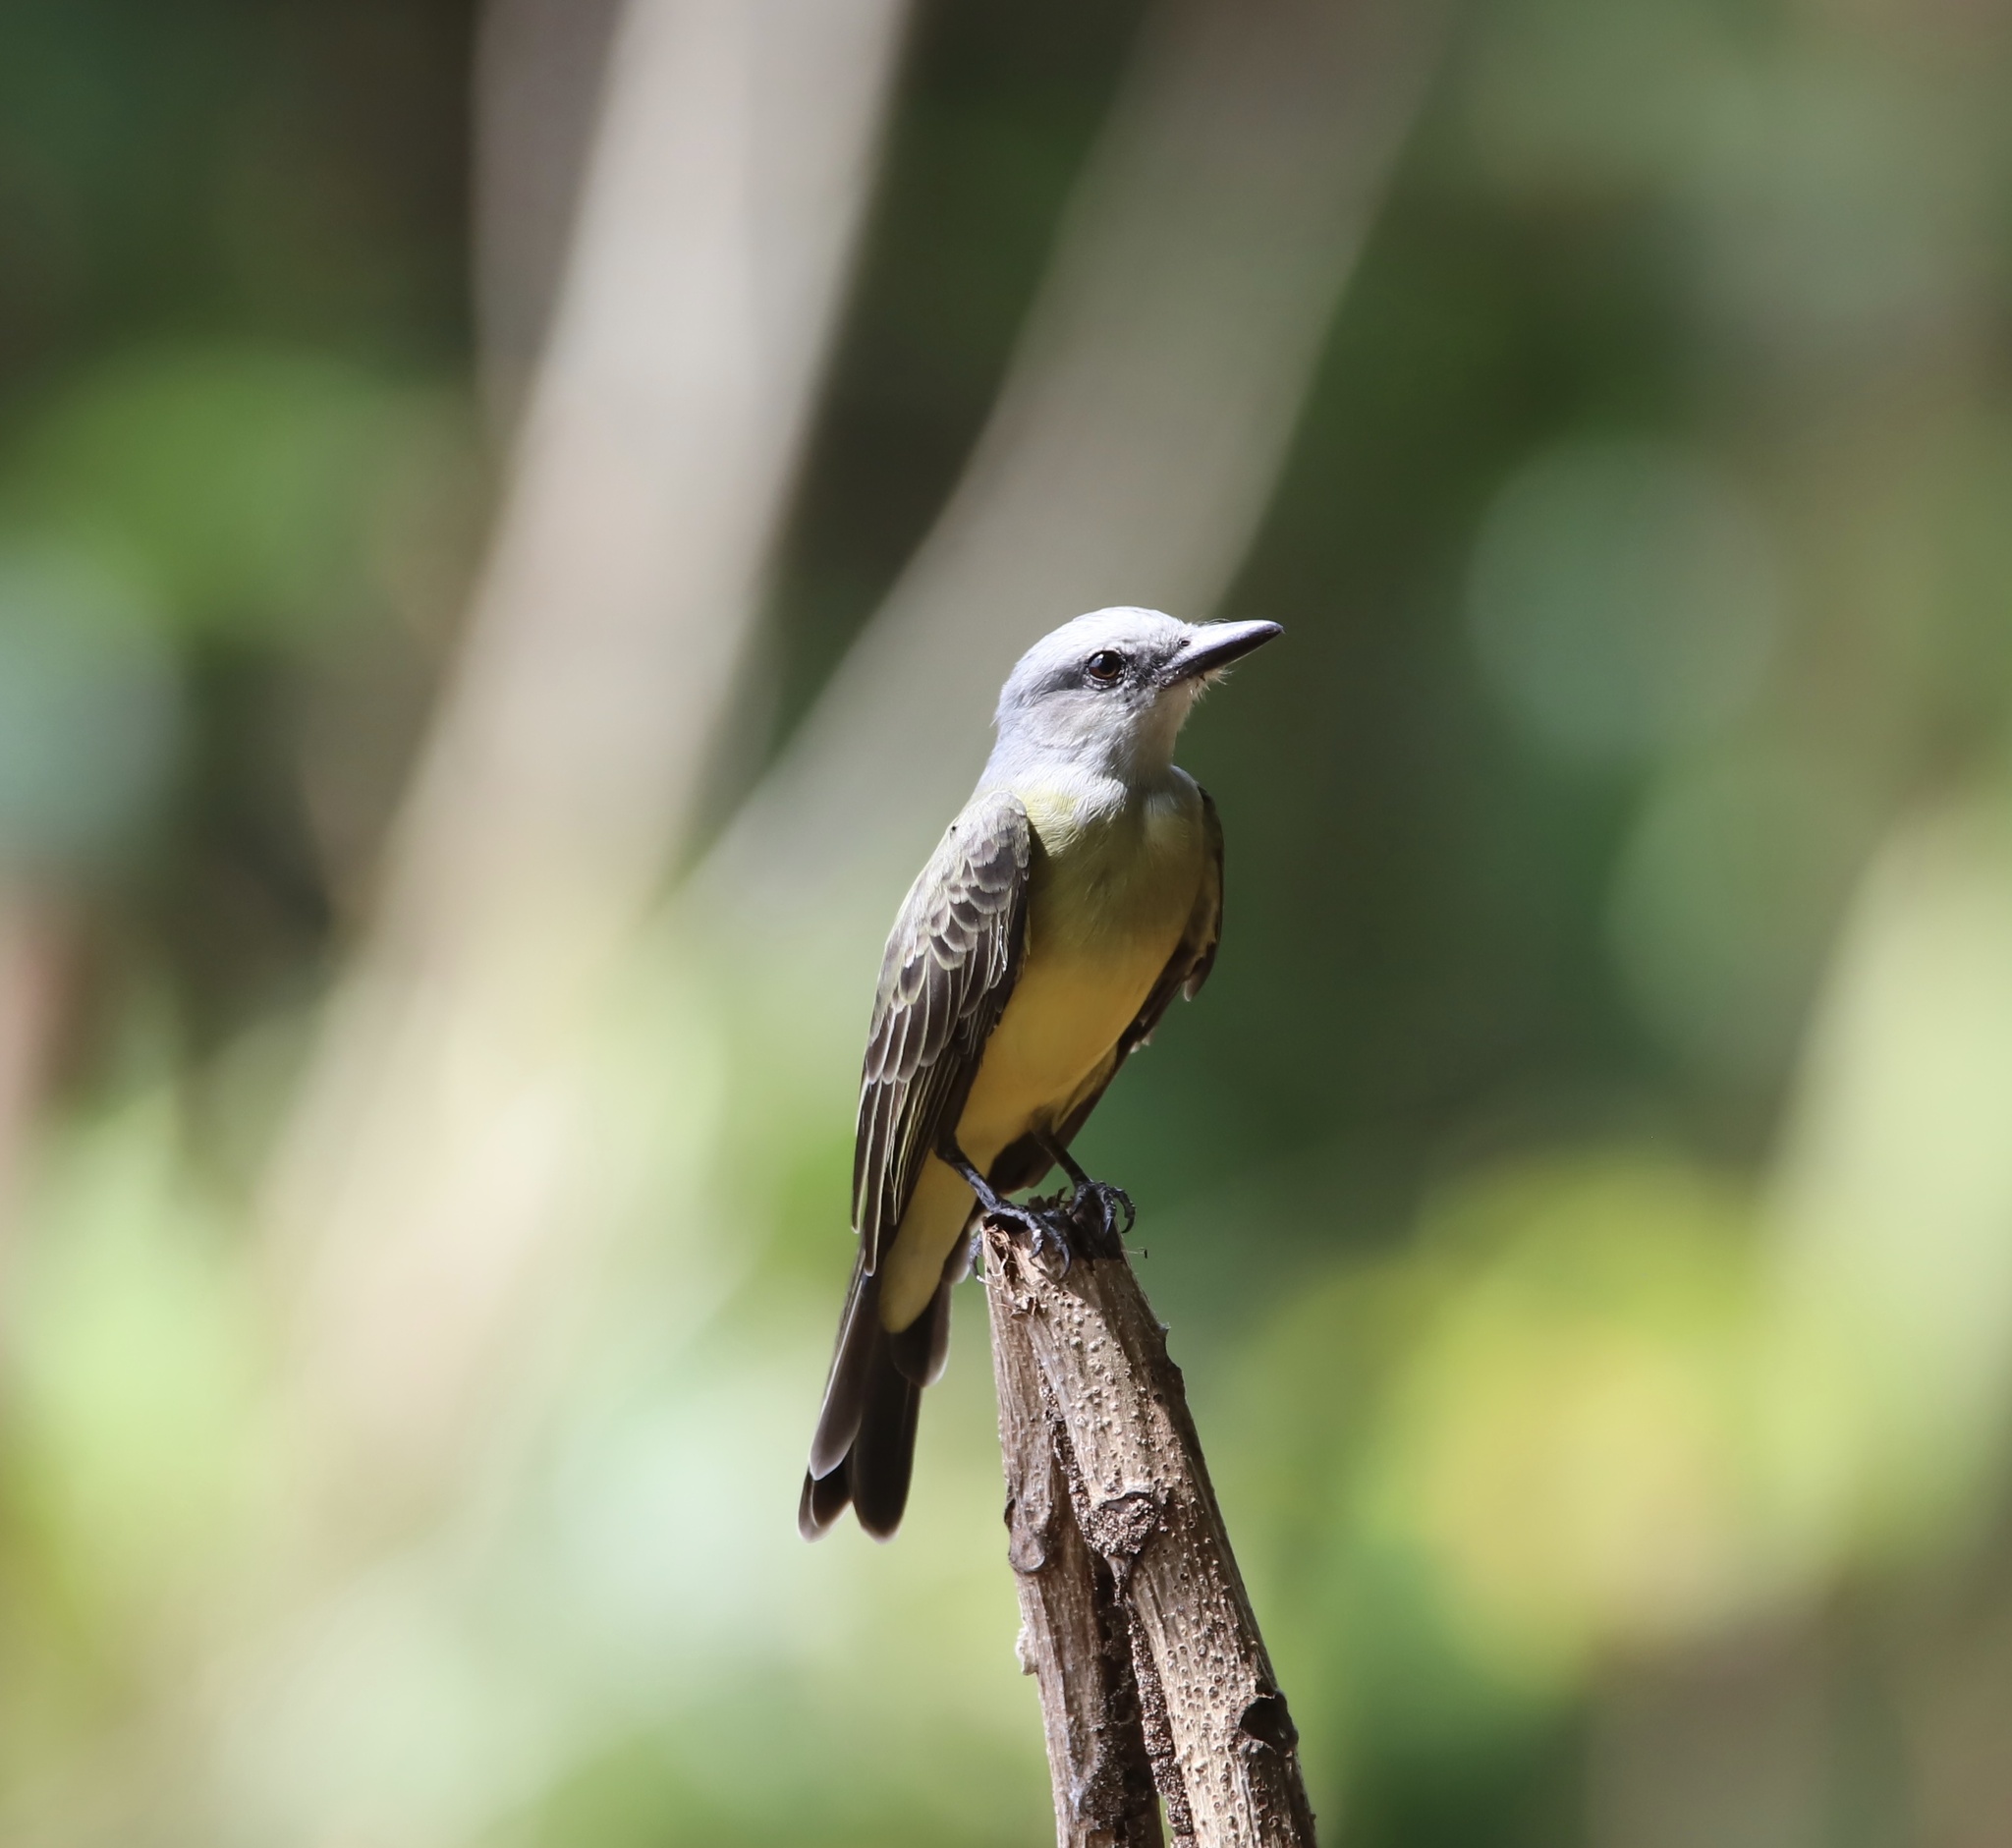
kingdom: Animalia
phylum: Chordata
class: Aves
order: Passeriformes
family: Tyrannidae
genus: Tyrannus
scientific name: Tyrannus melancholicus
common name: Tropical kingbird
